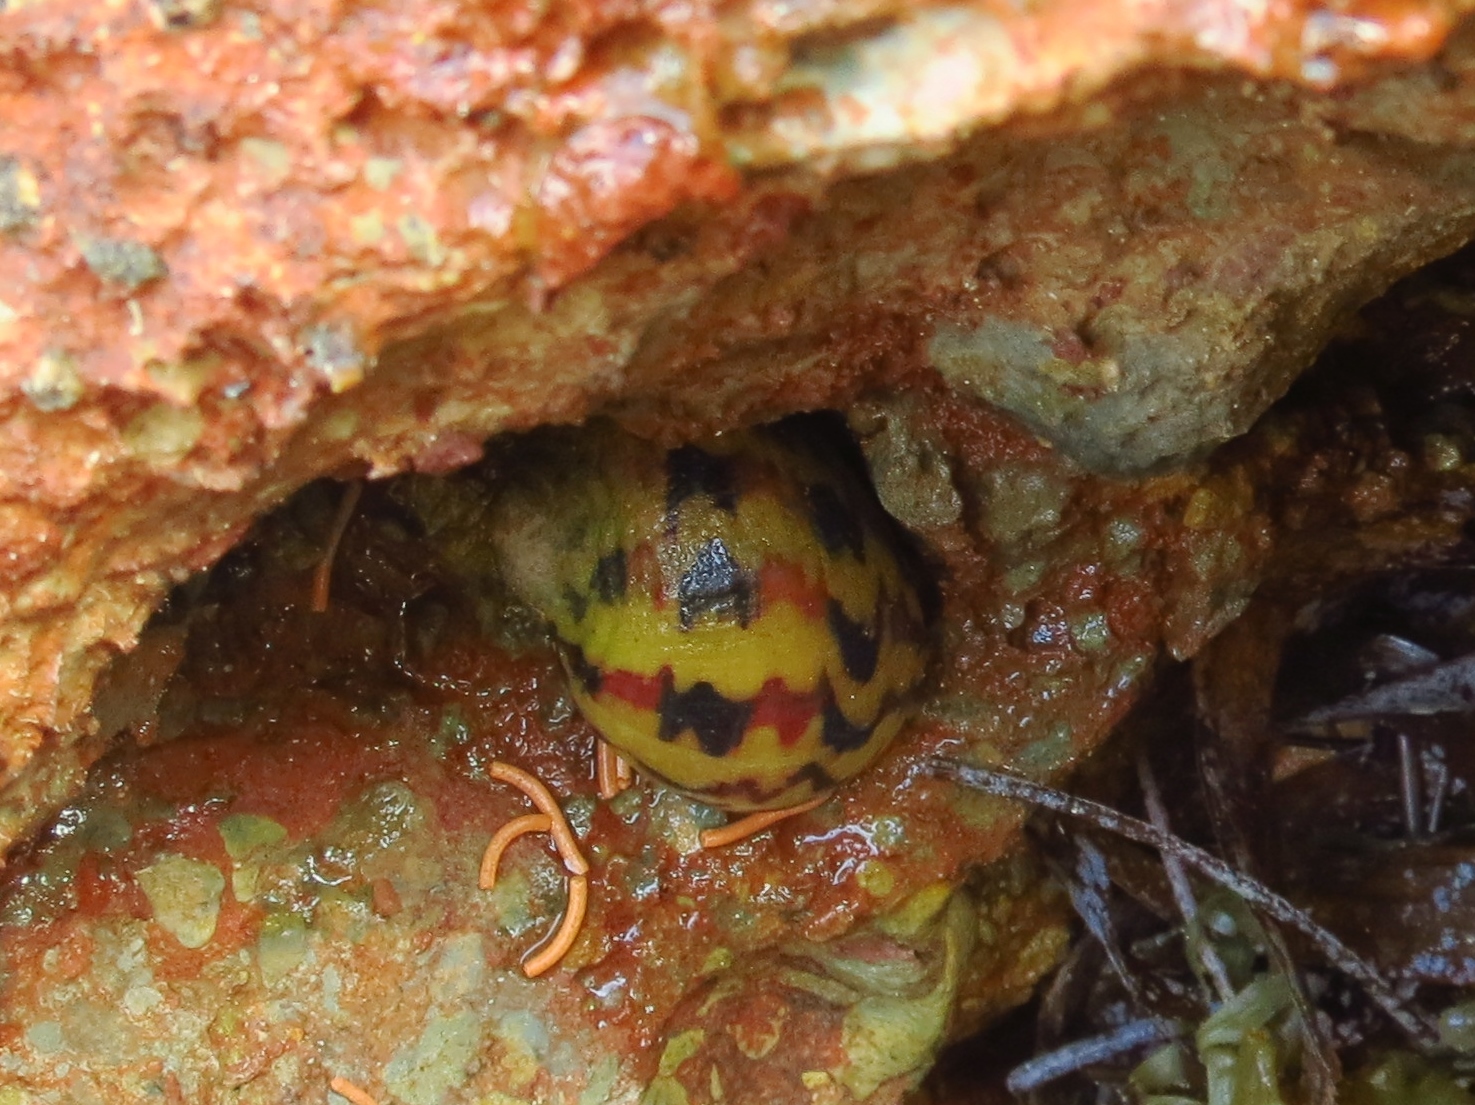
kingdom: Animalia
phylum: Mollusca
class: Gastropoda
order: Cycloneritida
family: Neritidae
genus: Nerita
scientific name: Nerita peloronta
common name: Bleeding tooth
